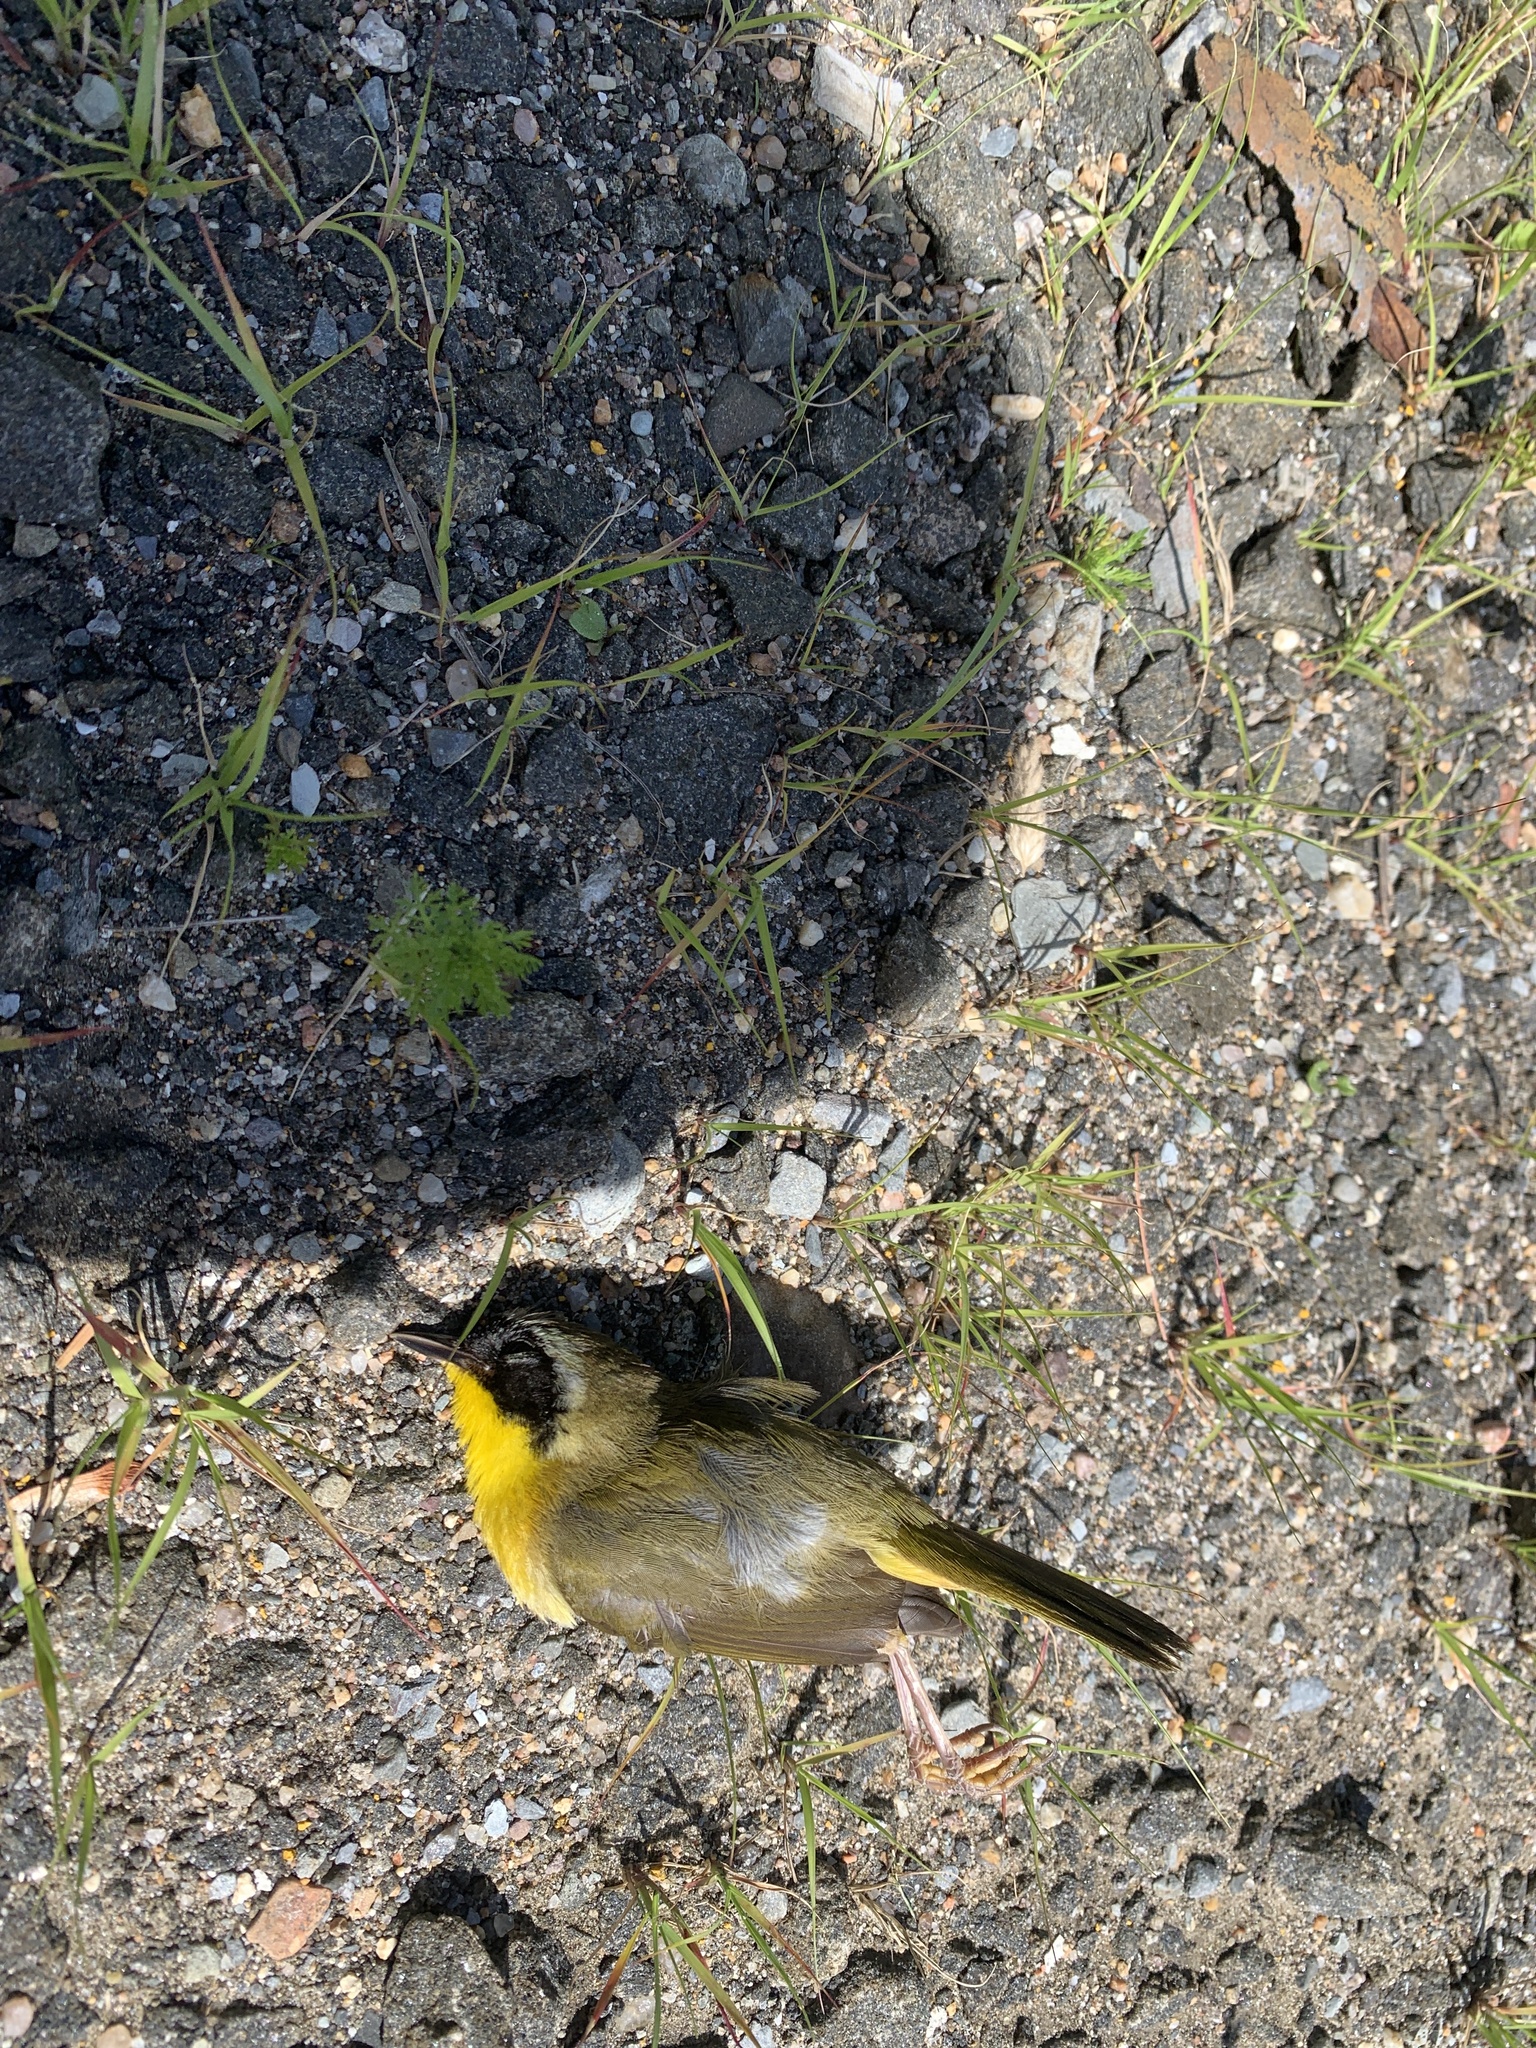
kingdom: Animalia
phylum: Chordata
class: Aves
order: Passeriformes
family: Parulidae
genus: Geothlypis
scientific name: Geothlypis trichas
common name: Common yellowthroat
